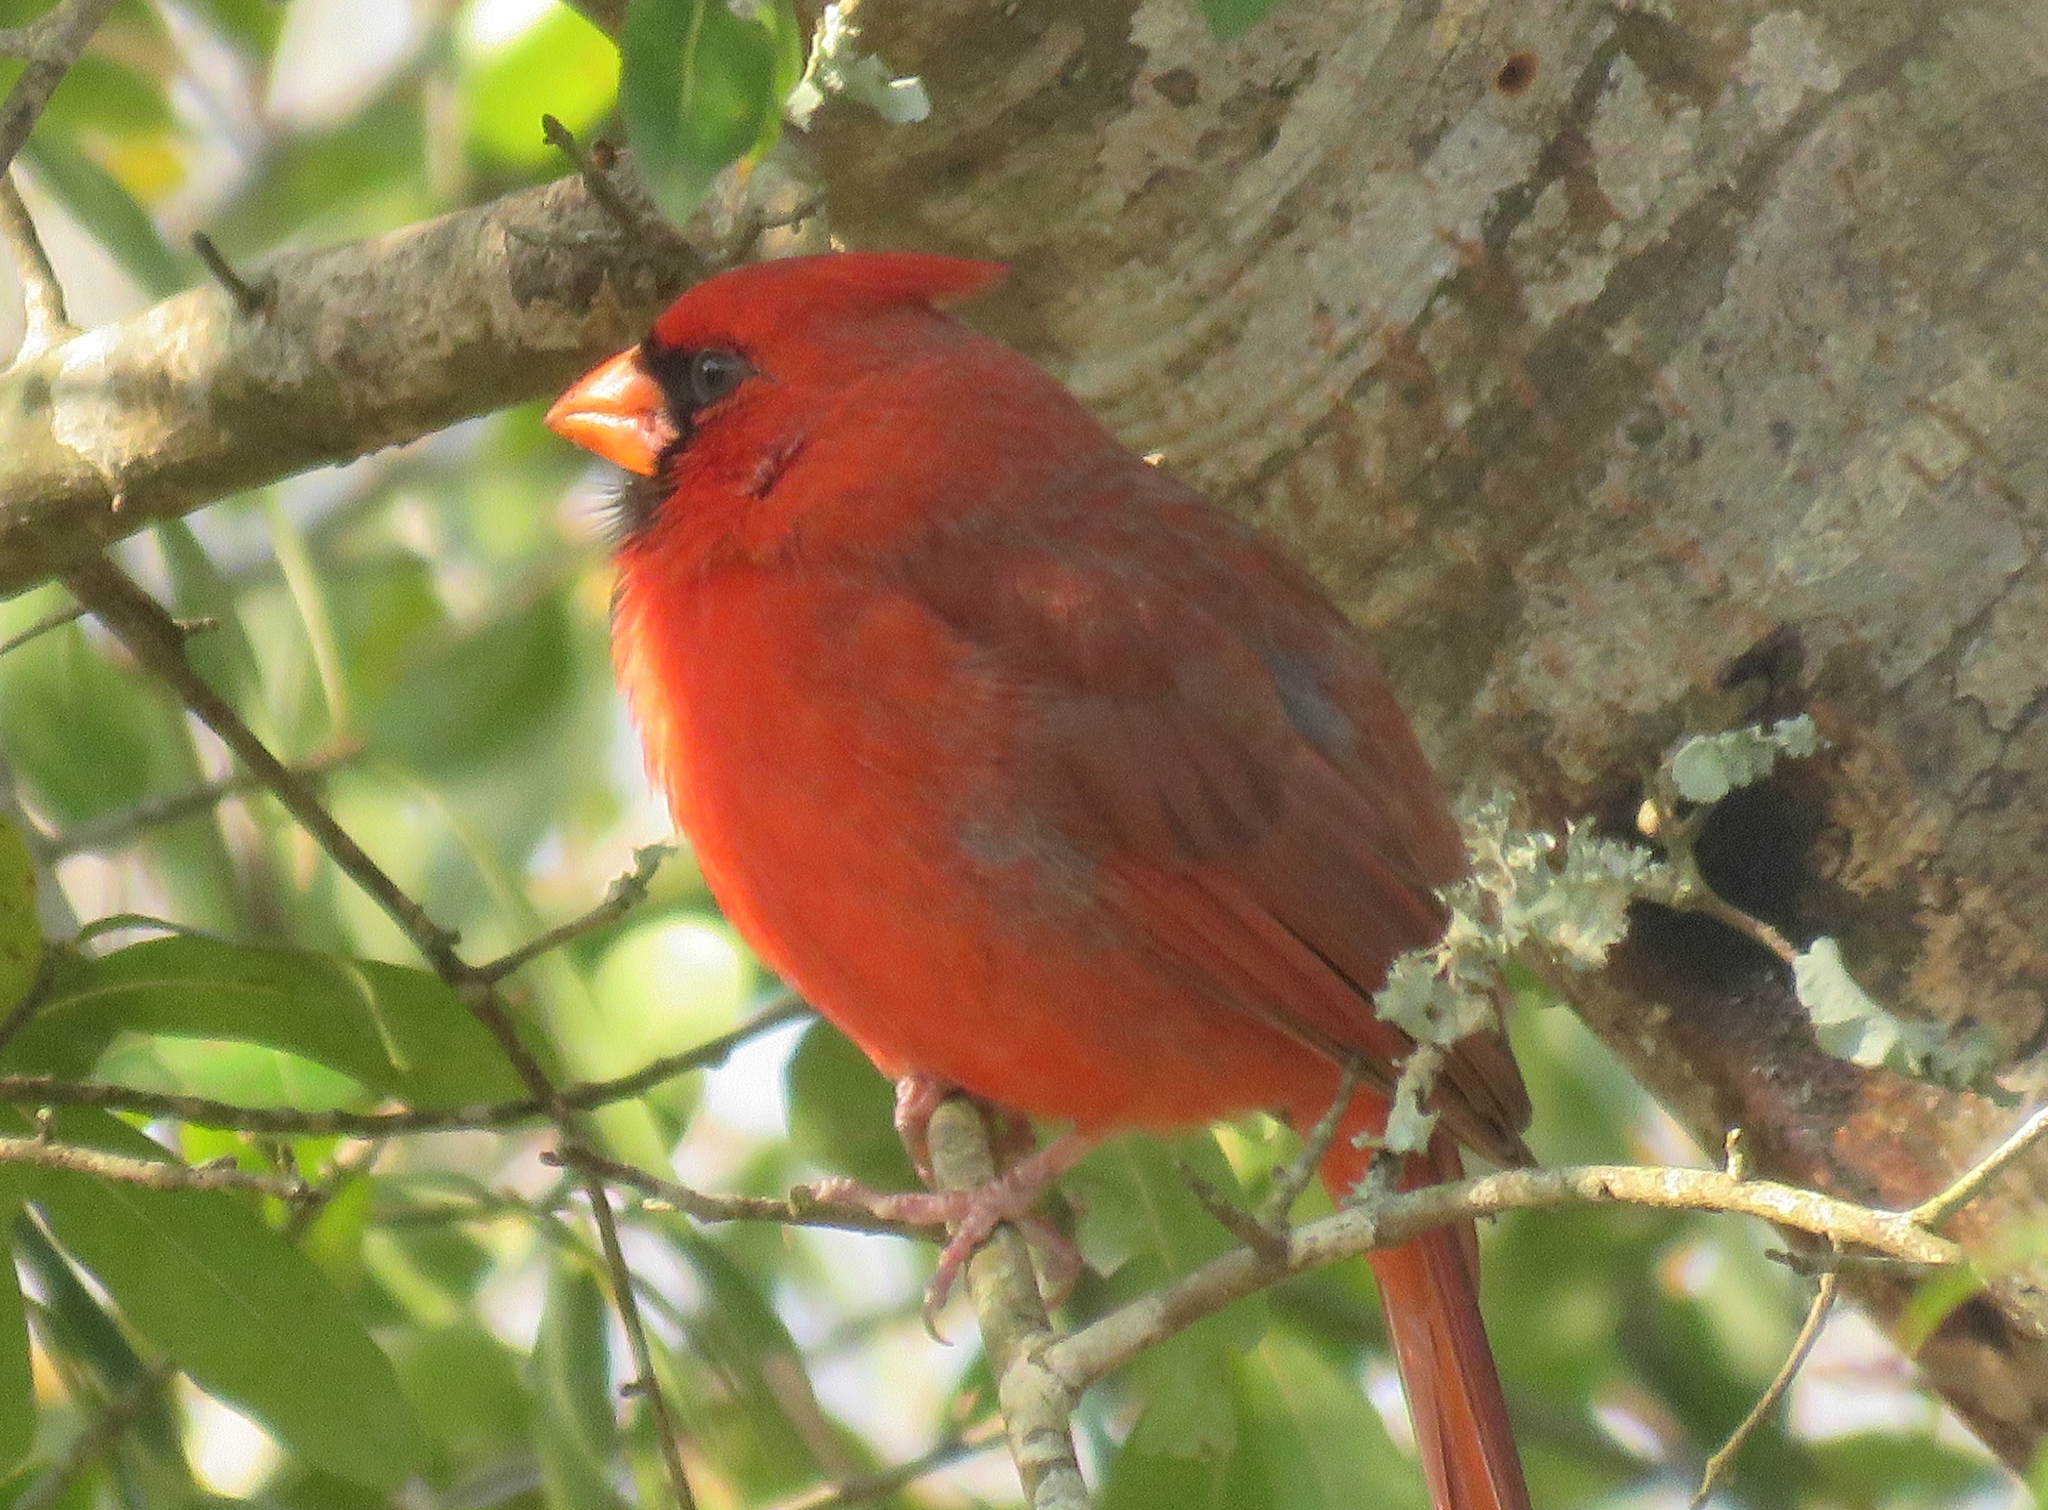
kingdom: Animalia
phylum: Chordata
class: Aves
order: Passeriformes
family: Cardinalidae
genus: Cardinalis
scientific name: Cardinalis cardinalis
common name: Northern cardinal
